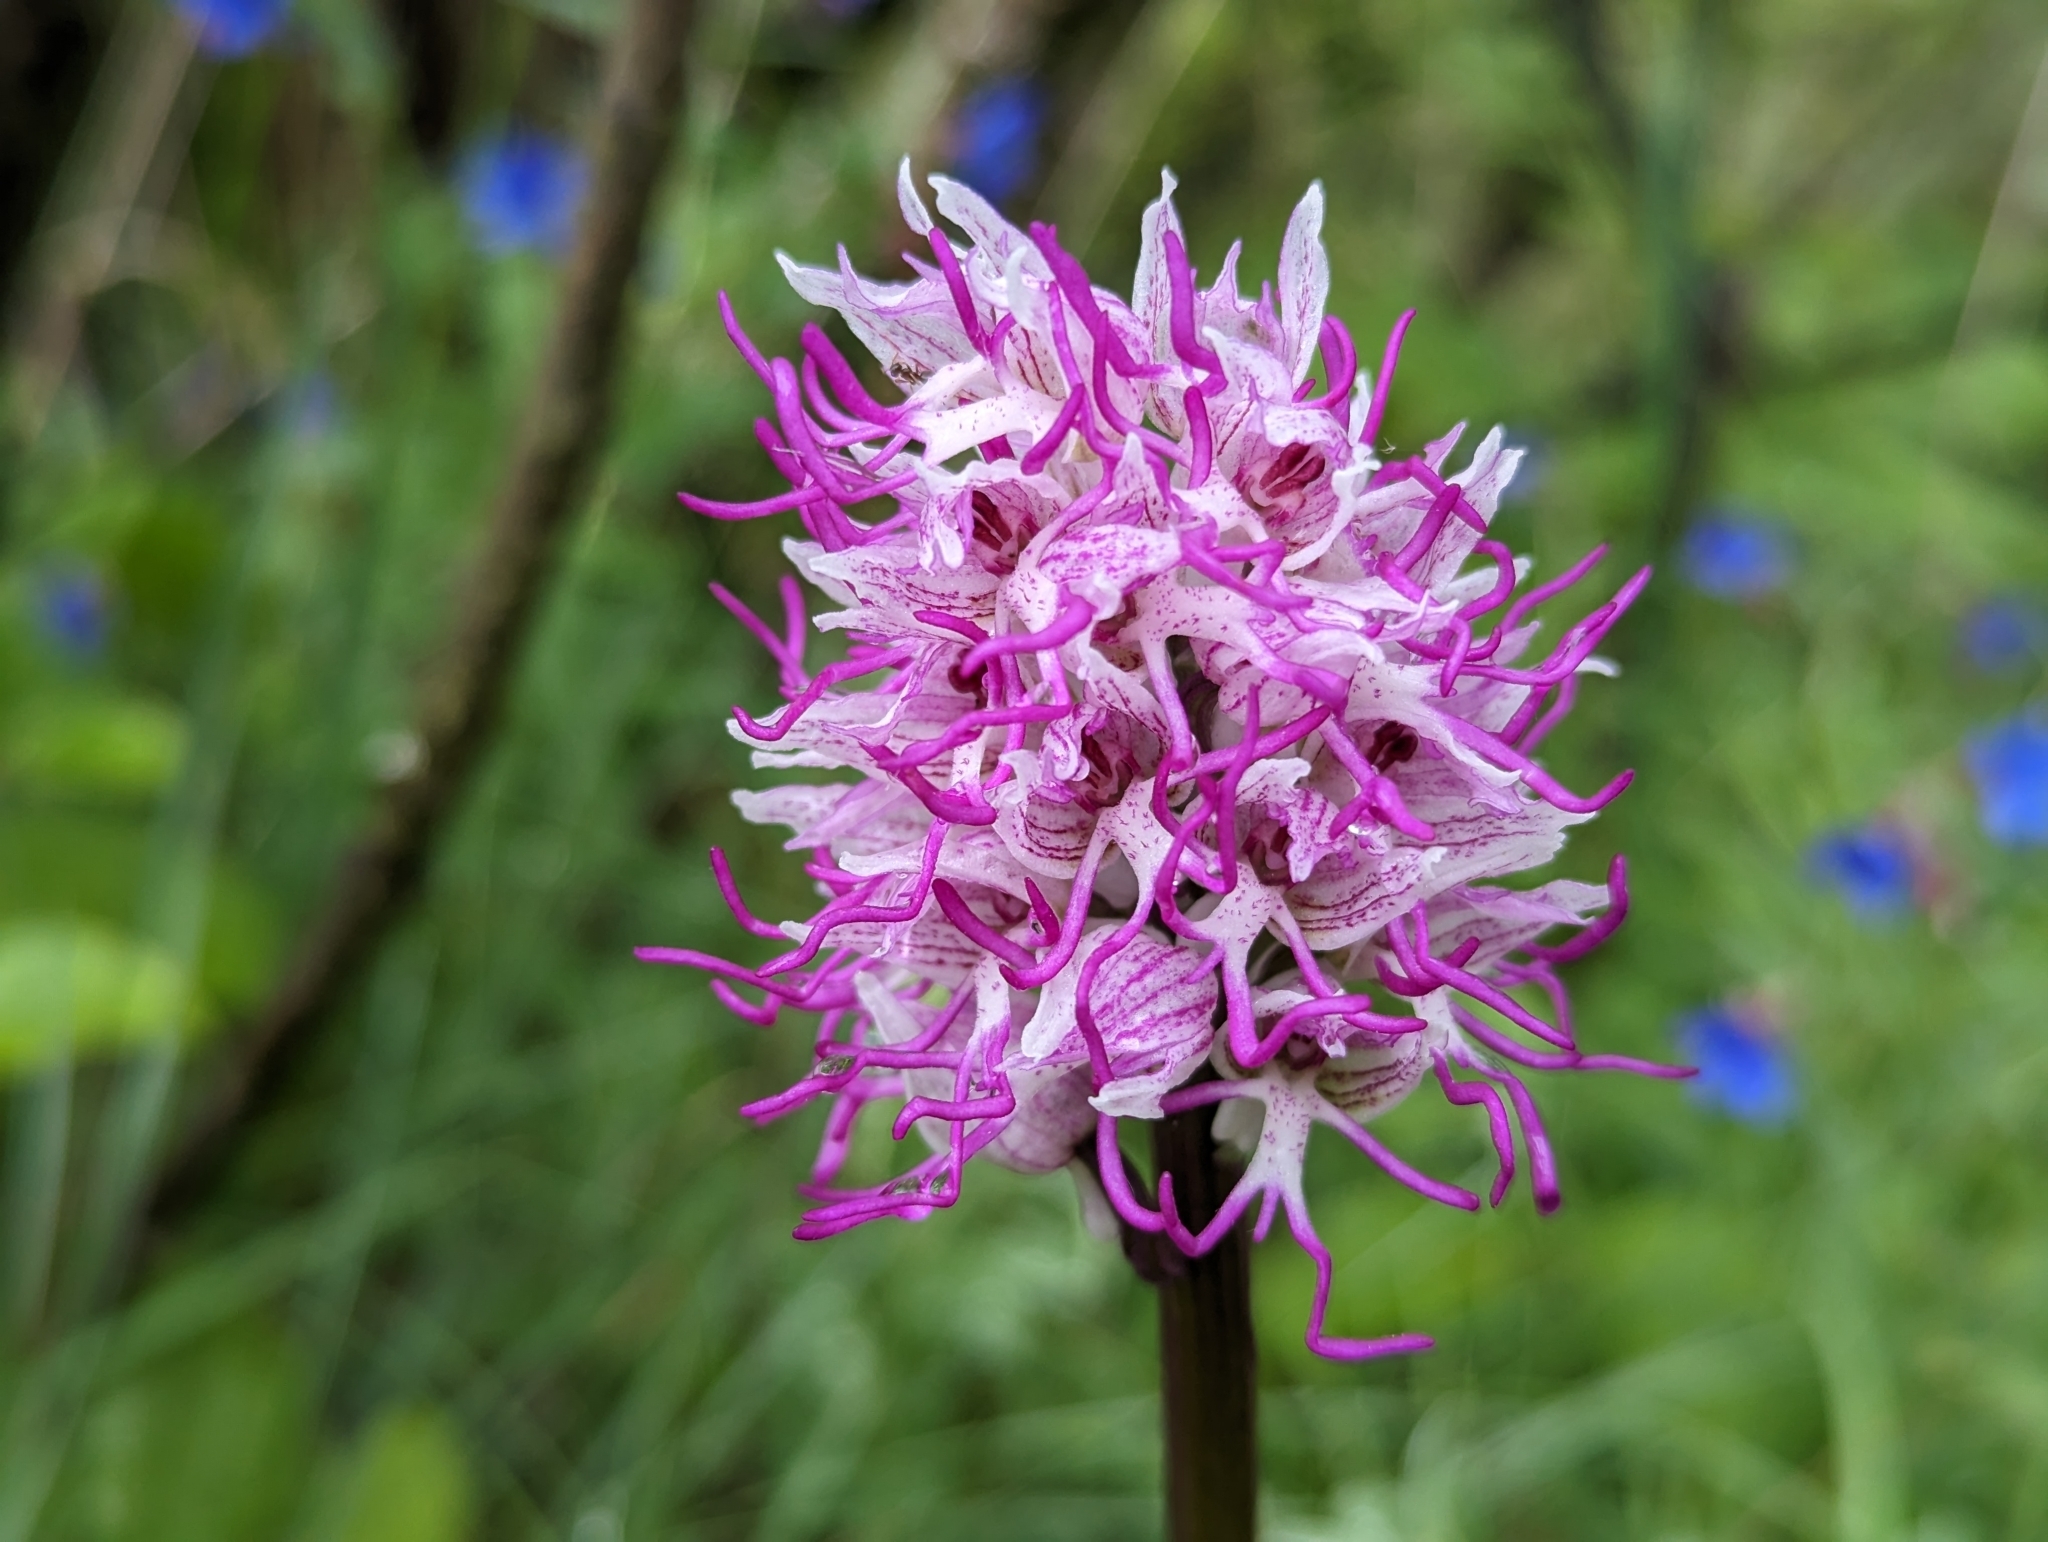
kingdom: Plantae
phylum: Tracheophyta
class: Liliopsida
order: Asparagales
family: Orchidaceae
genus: Orchis
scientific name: Orchis simia
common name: Monkey orchid
